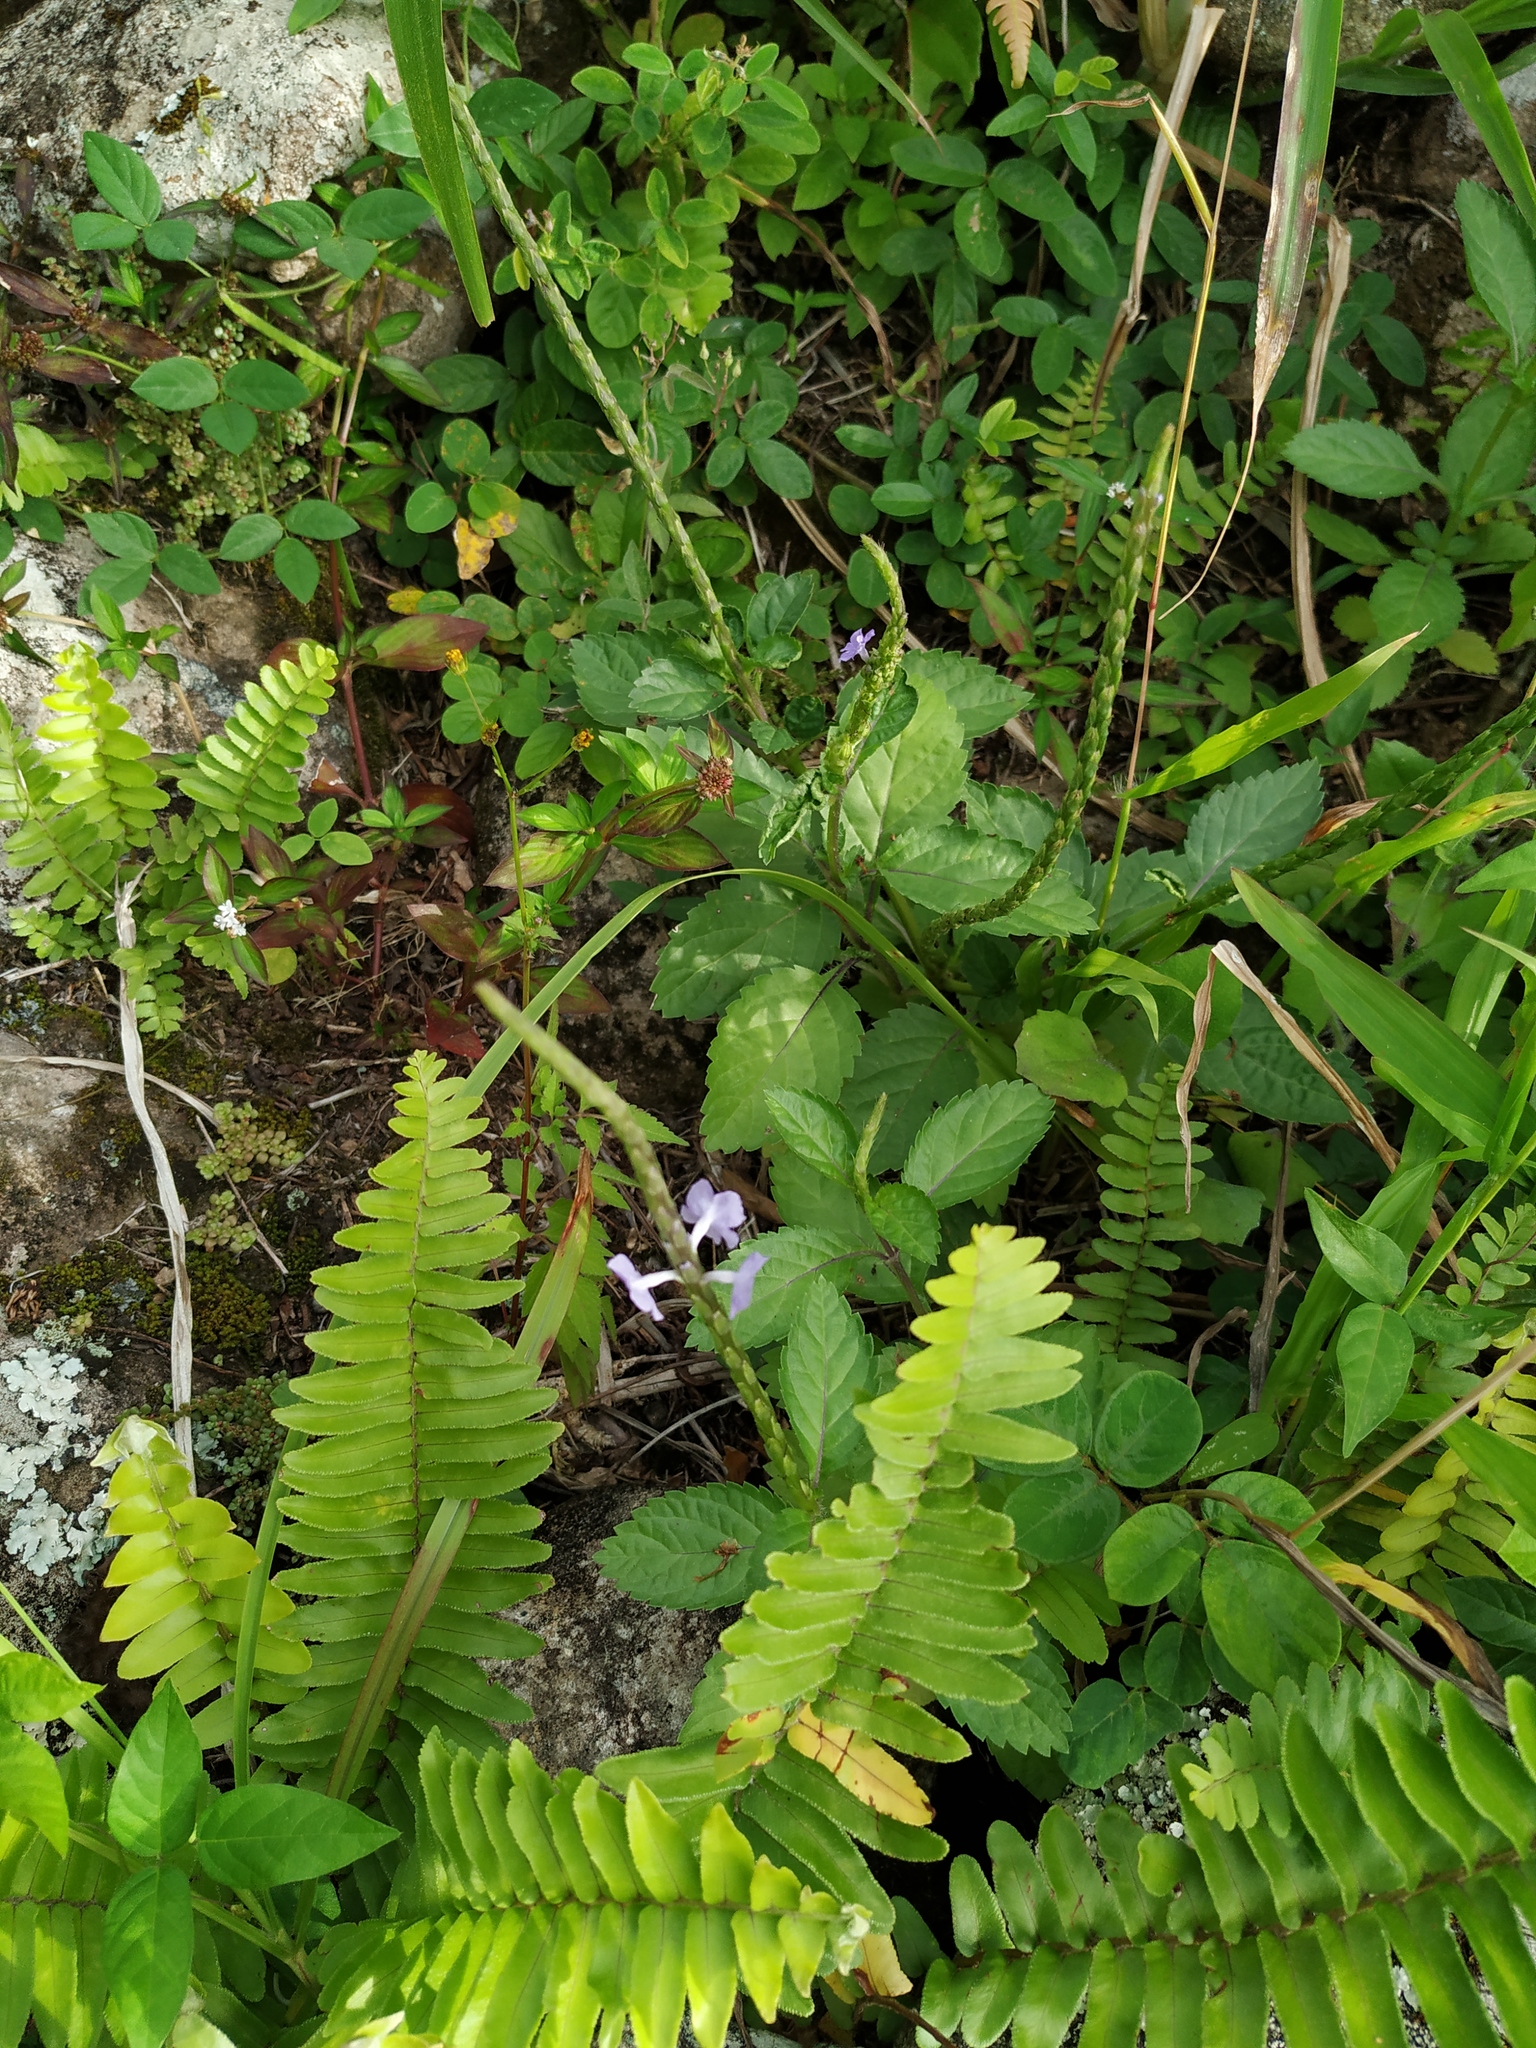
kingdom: Plantae
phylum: Tracheophyta
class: Magnoliopsida
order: Lamiales
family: Verbenaceae
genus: Stachytarpheta
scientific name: Stachytarpheta jamaicensis
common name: Light-blue snakeweed
